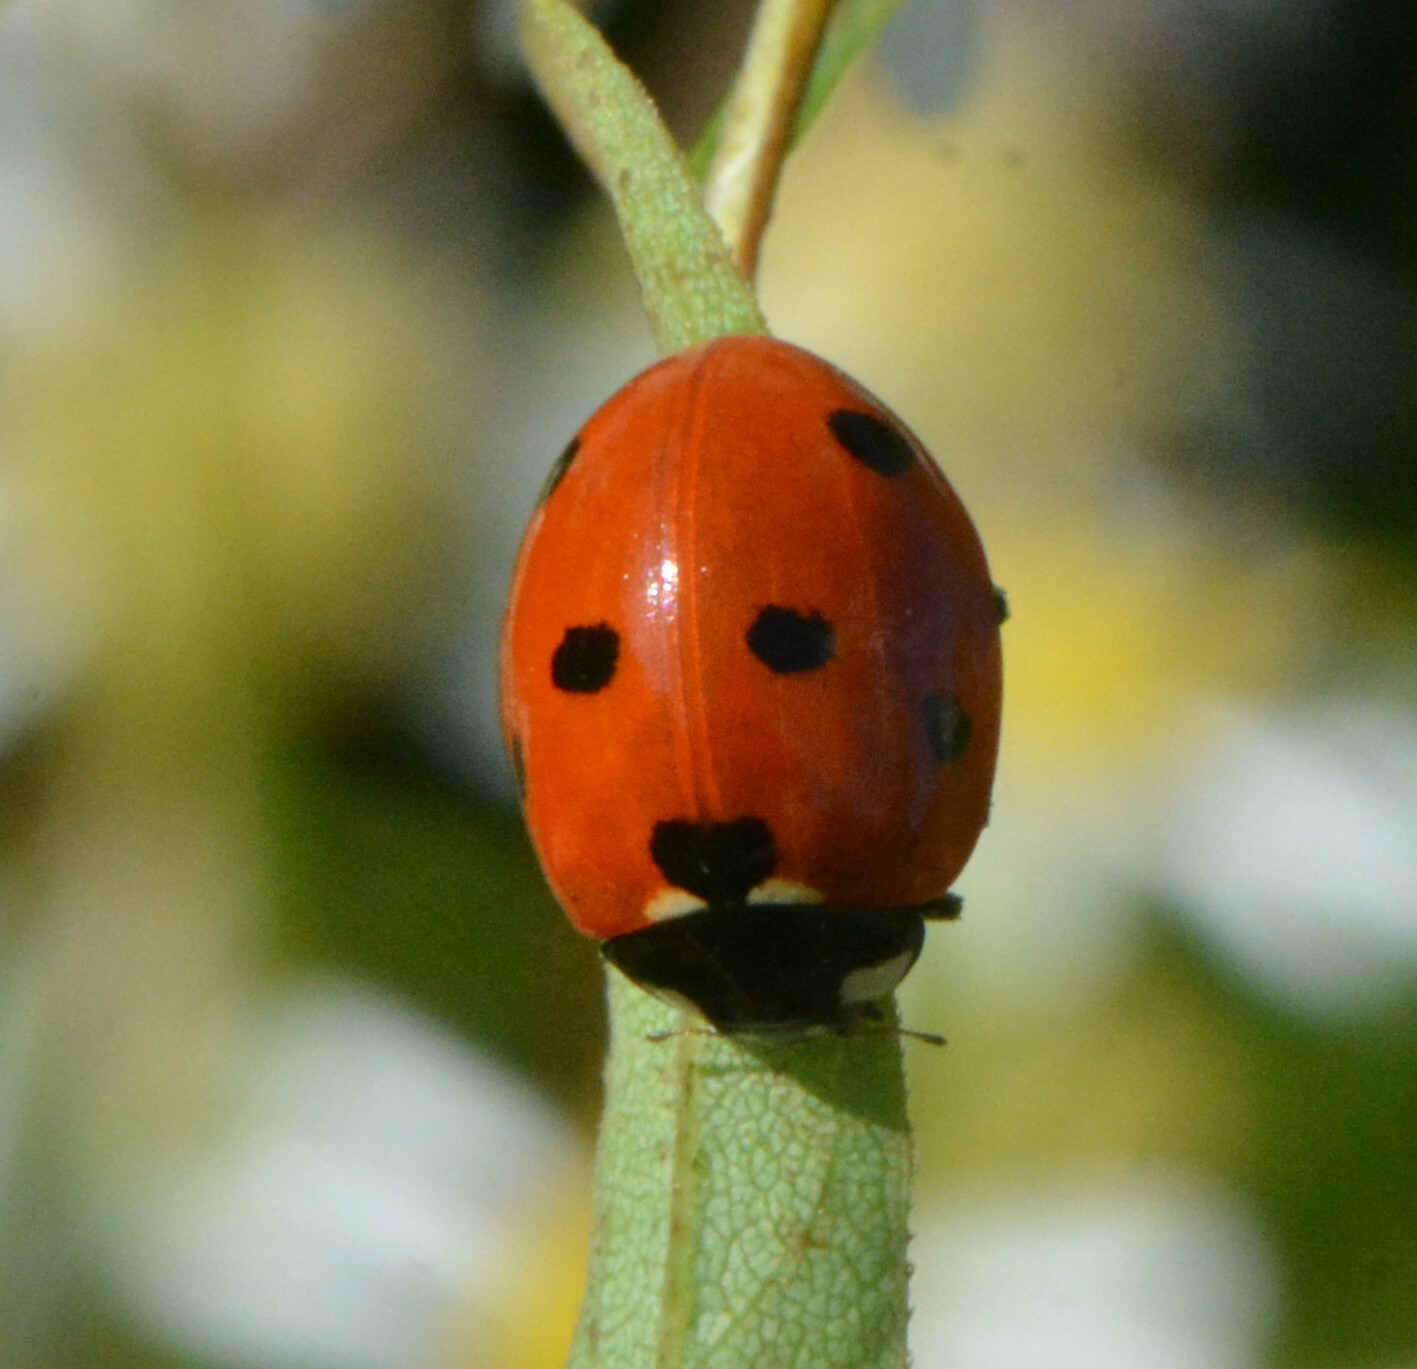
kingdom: Animalia
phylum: Arthropoda
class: Insecta
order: Coleoptera
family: Coccinellidae
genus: Coccinella
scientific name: Coccinella septempunctata
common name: Sevenspotted lady beetle
